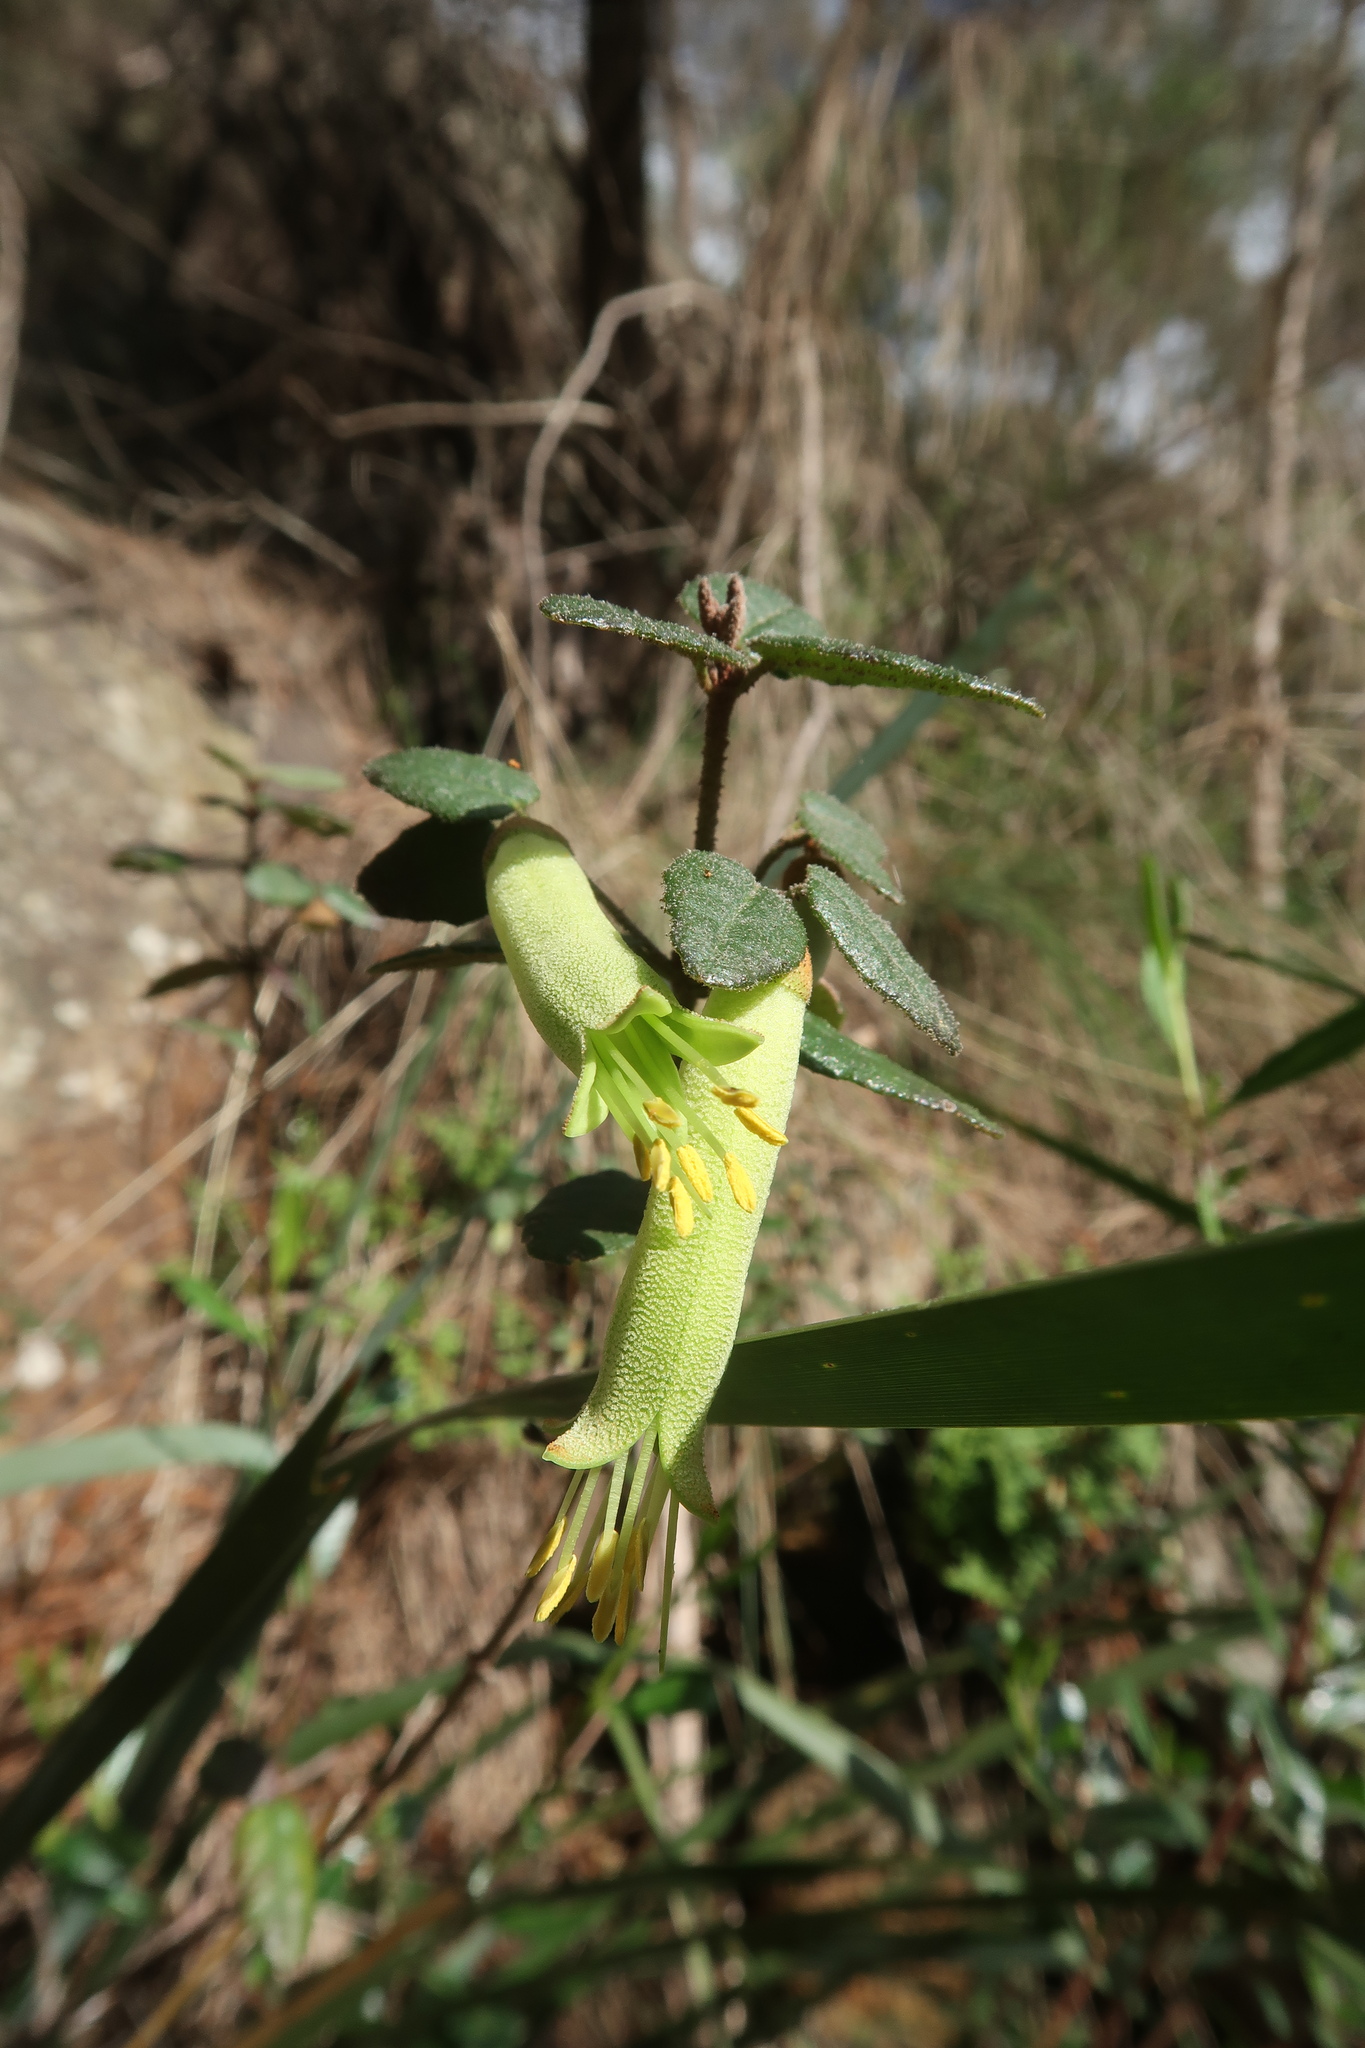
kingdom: Plantae
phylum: Tracheophyta
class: Magnoliopsida
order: Sapindales
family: Rutaceae
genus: Correa
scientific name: Correa reflexa
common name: Common correa
